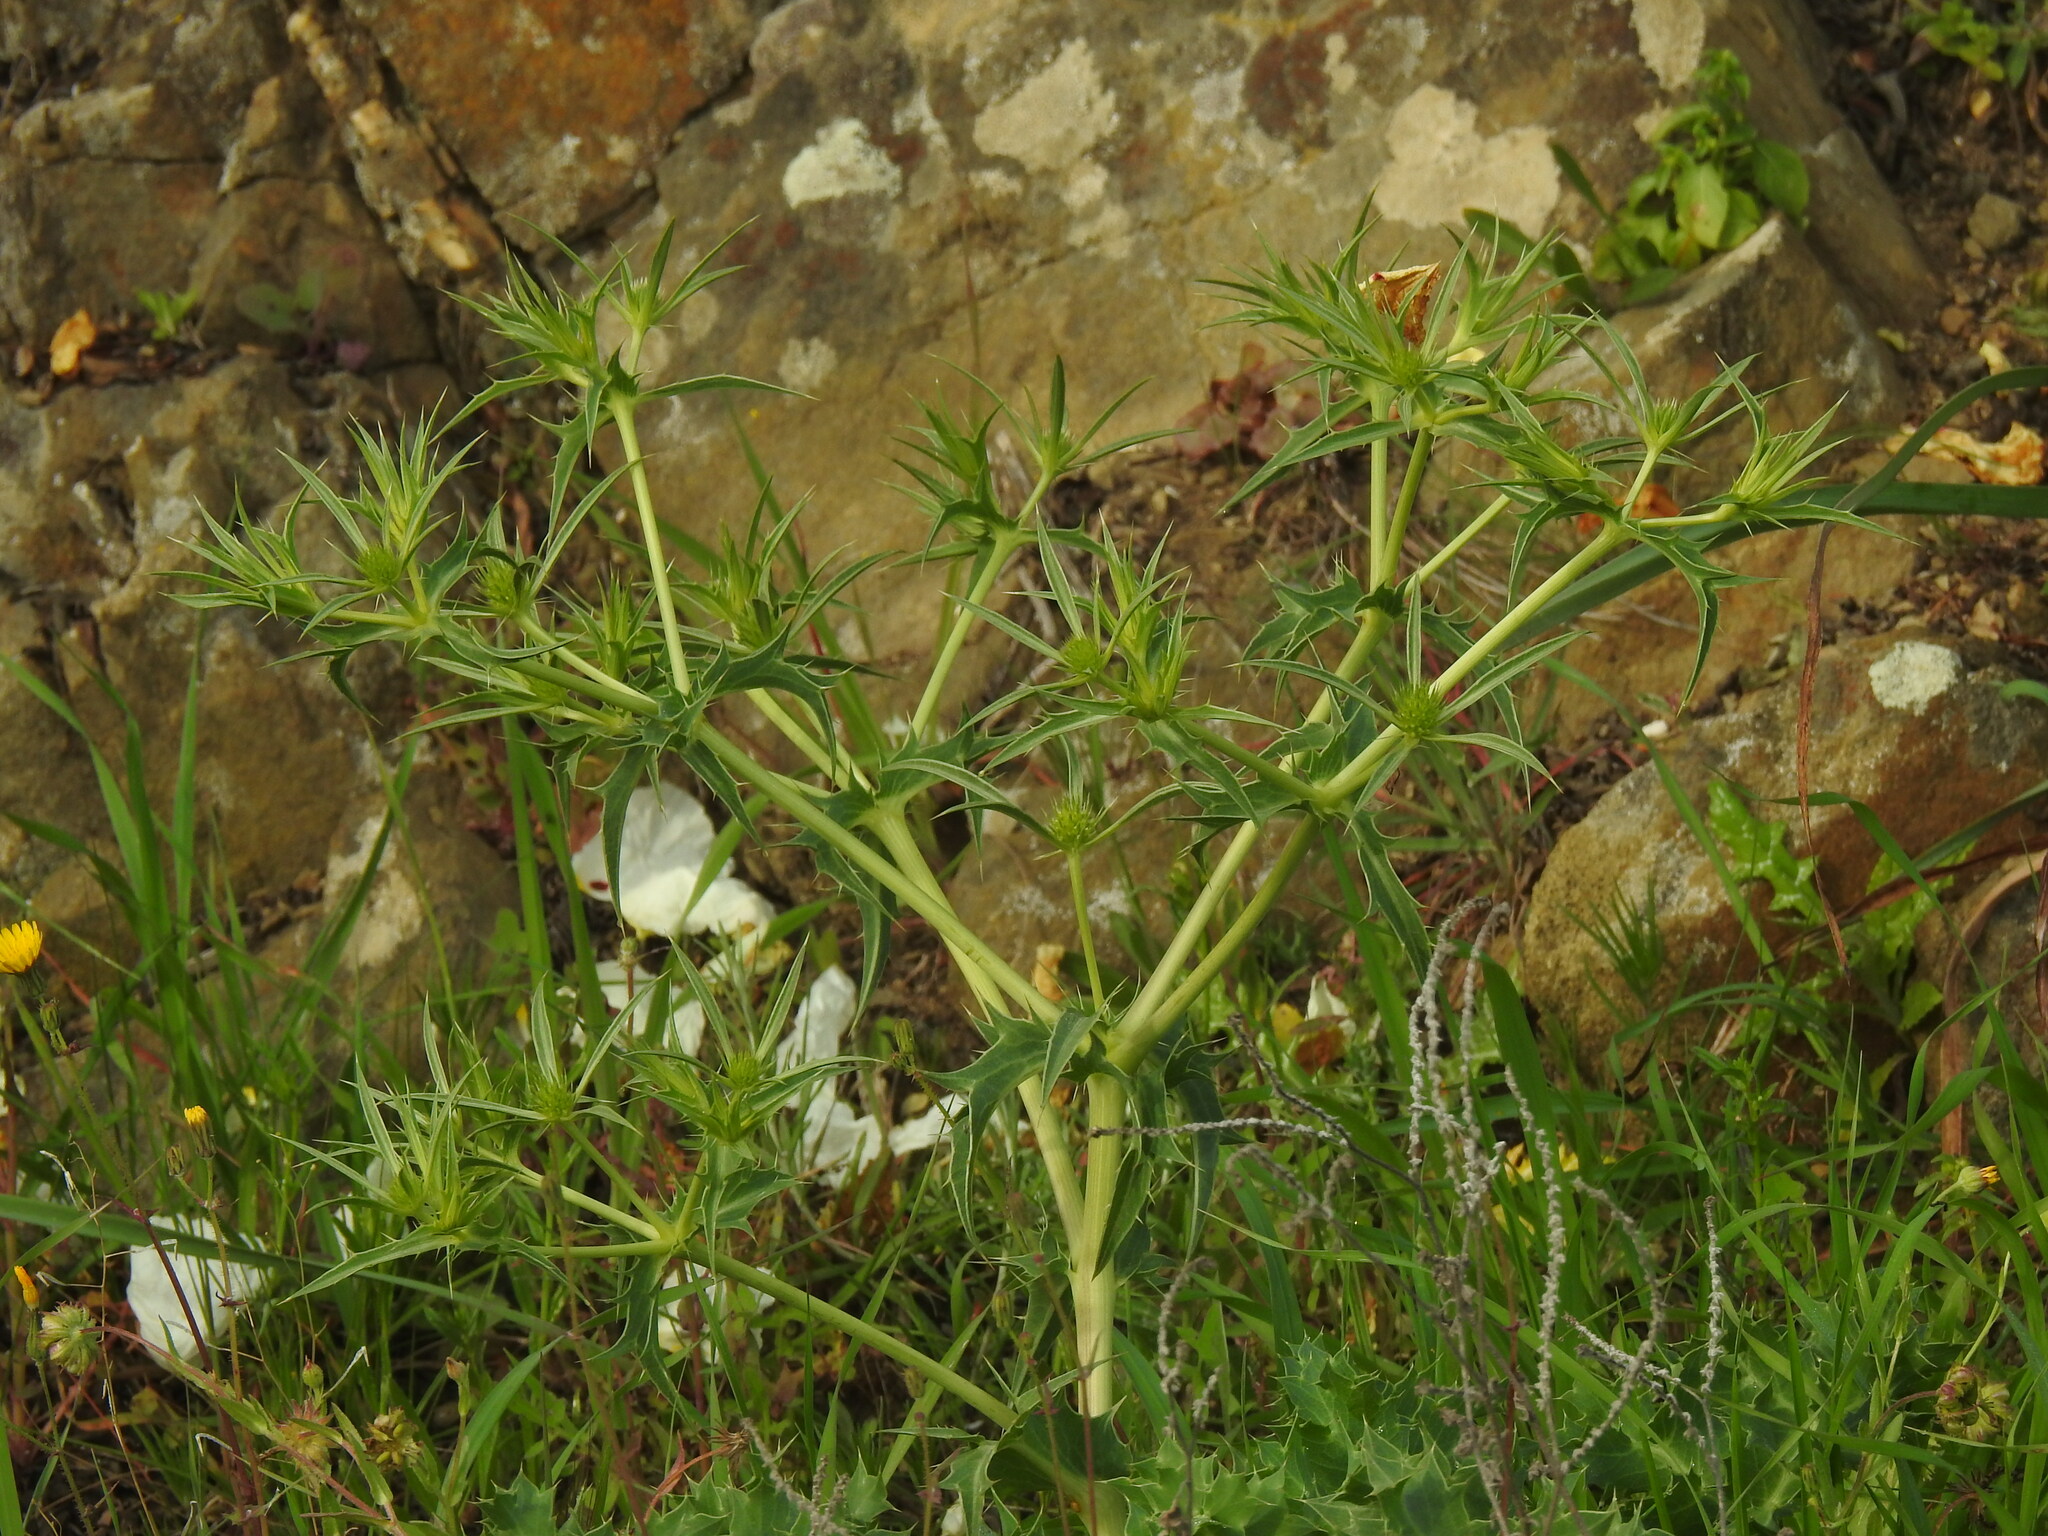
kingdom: Plantae
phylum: Tracheophyta
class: Magnoliopsida
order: Apiales
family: Apiaceae
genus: Eryngium
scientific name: Eryngium campestre
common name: Field eryngo
